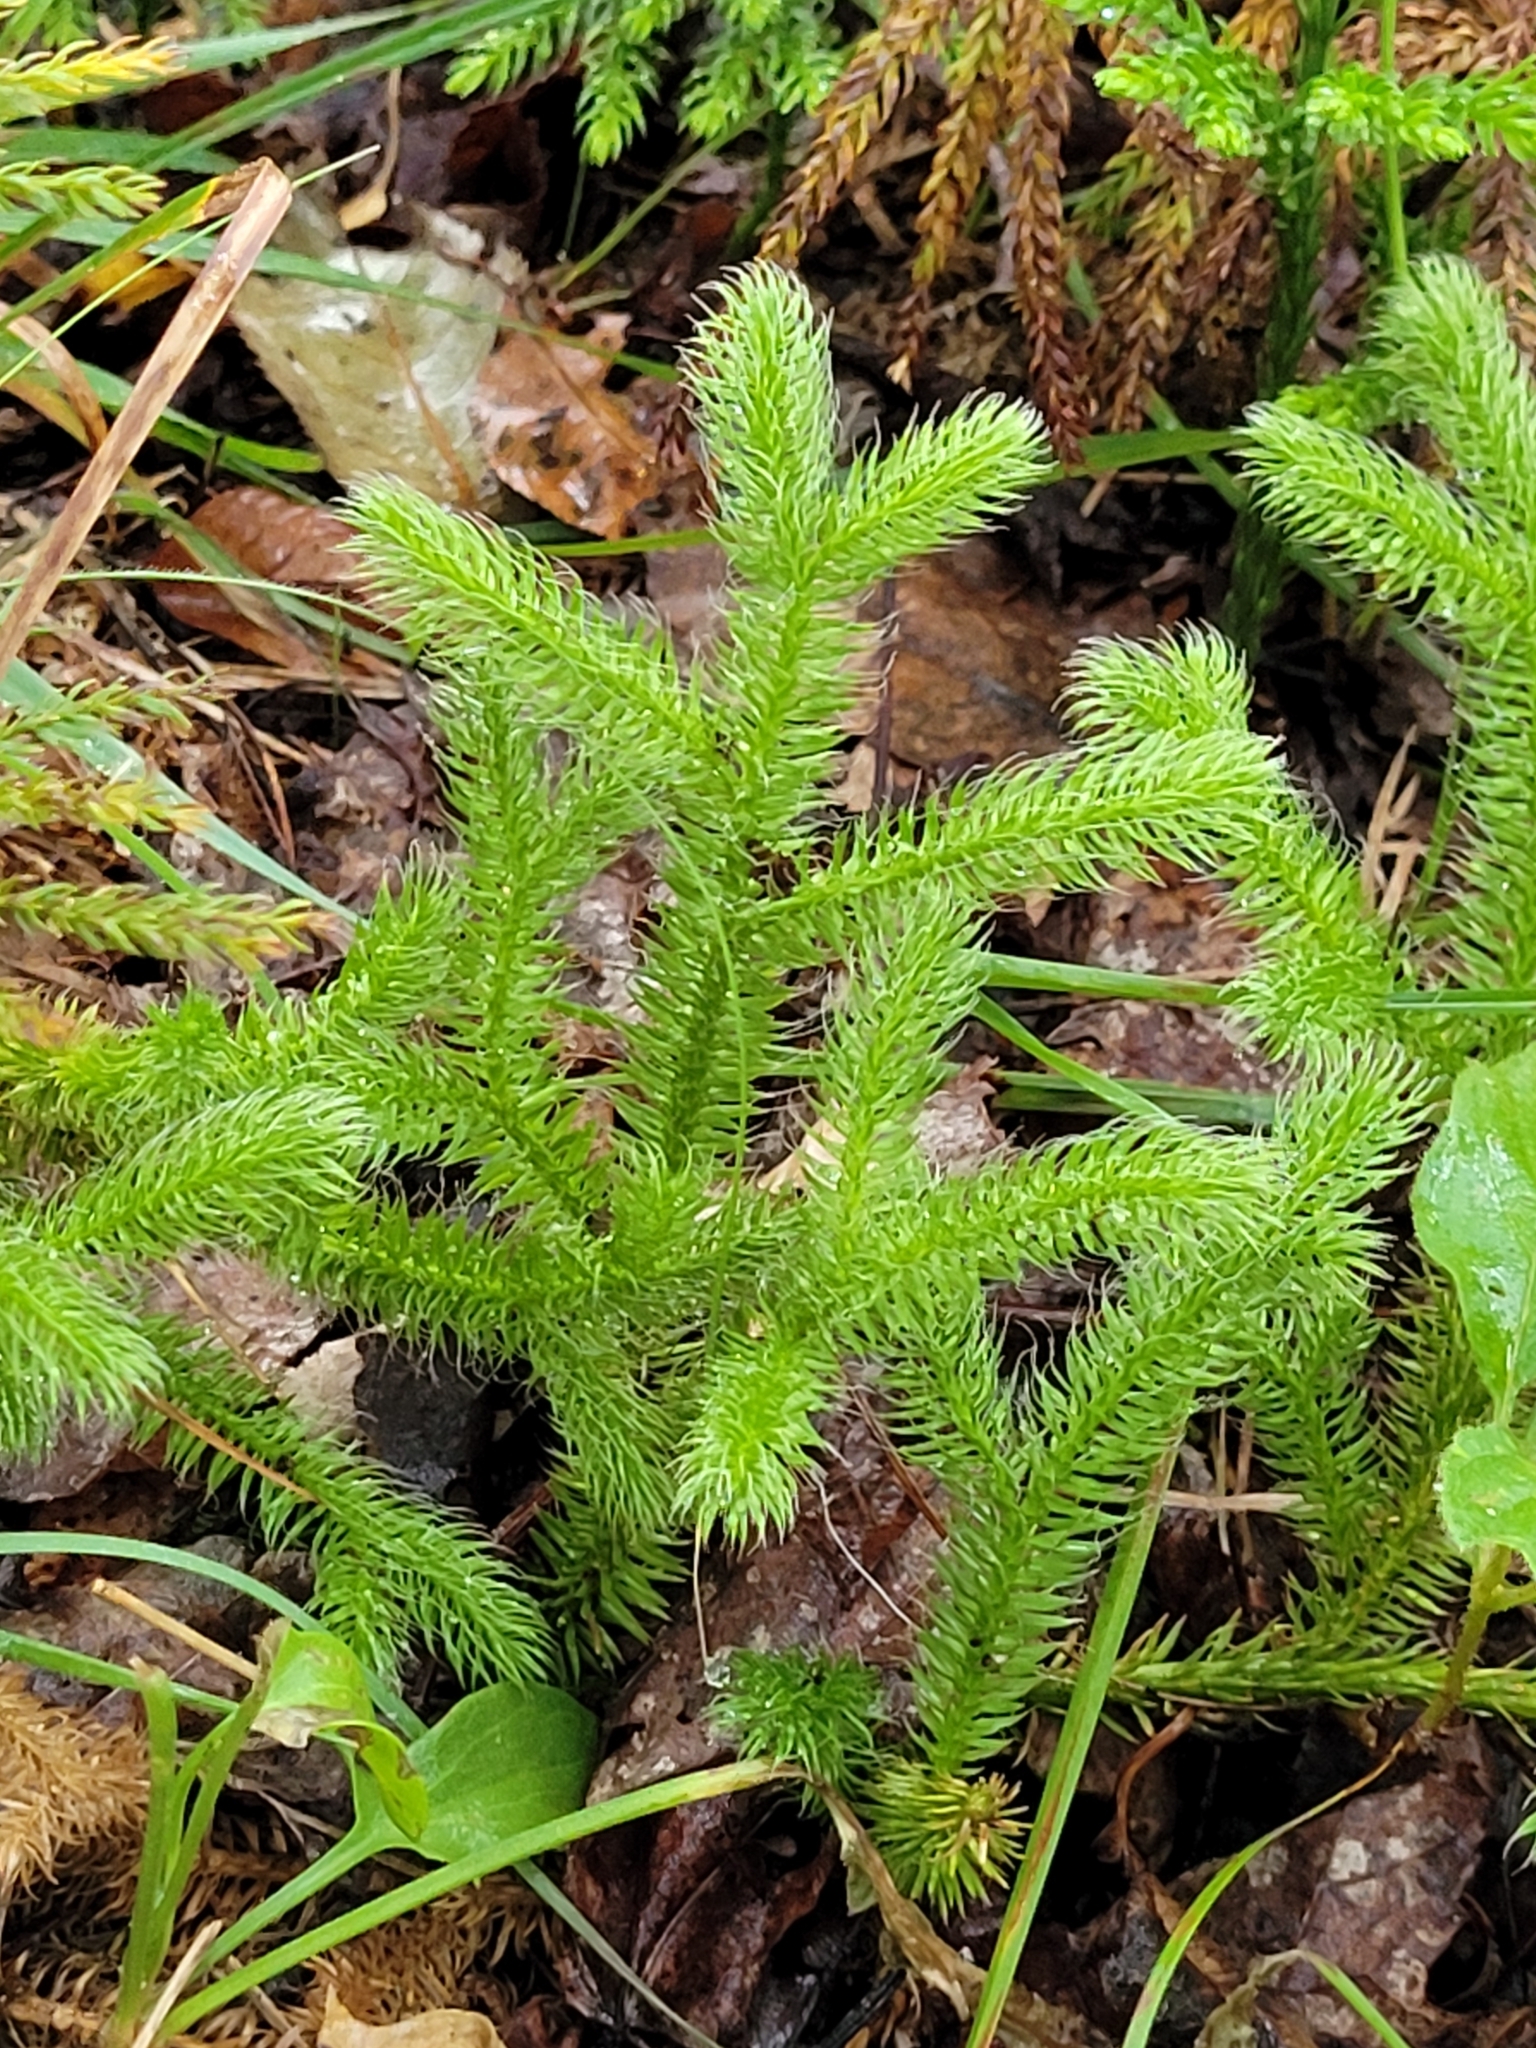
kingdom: Plantae
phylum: Tracheophyta
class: Lycopodiopsida
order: Lycopodiales
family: Lycopodiaceae
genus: Lycopodium
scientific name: Lycopodium clavatum
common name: Stag's-horn clubmoss
